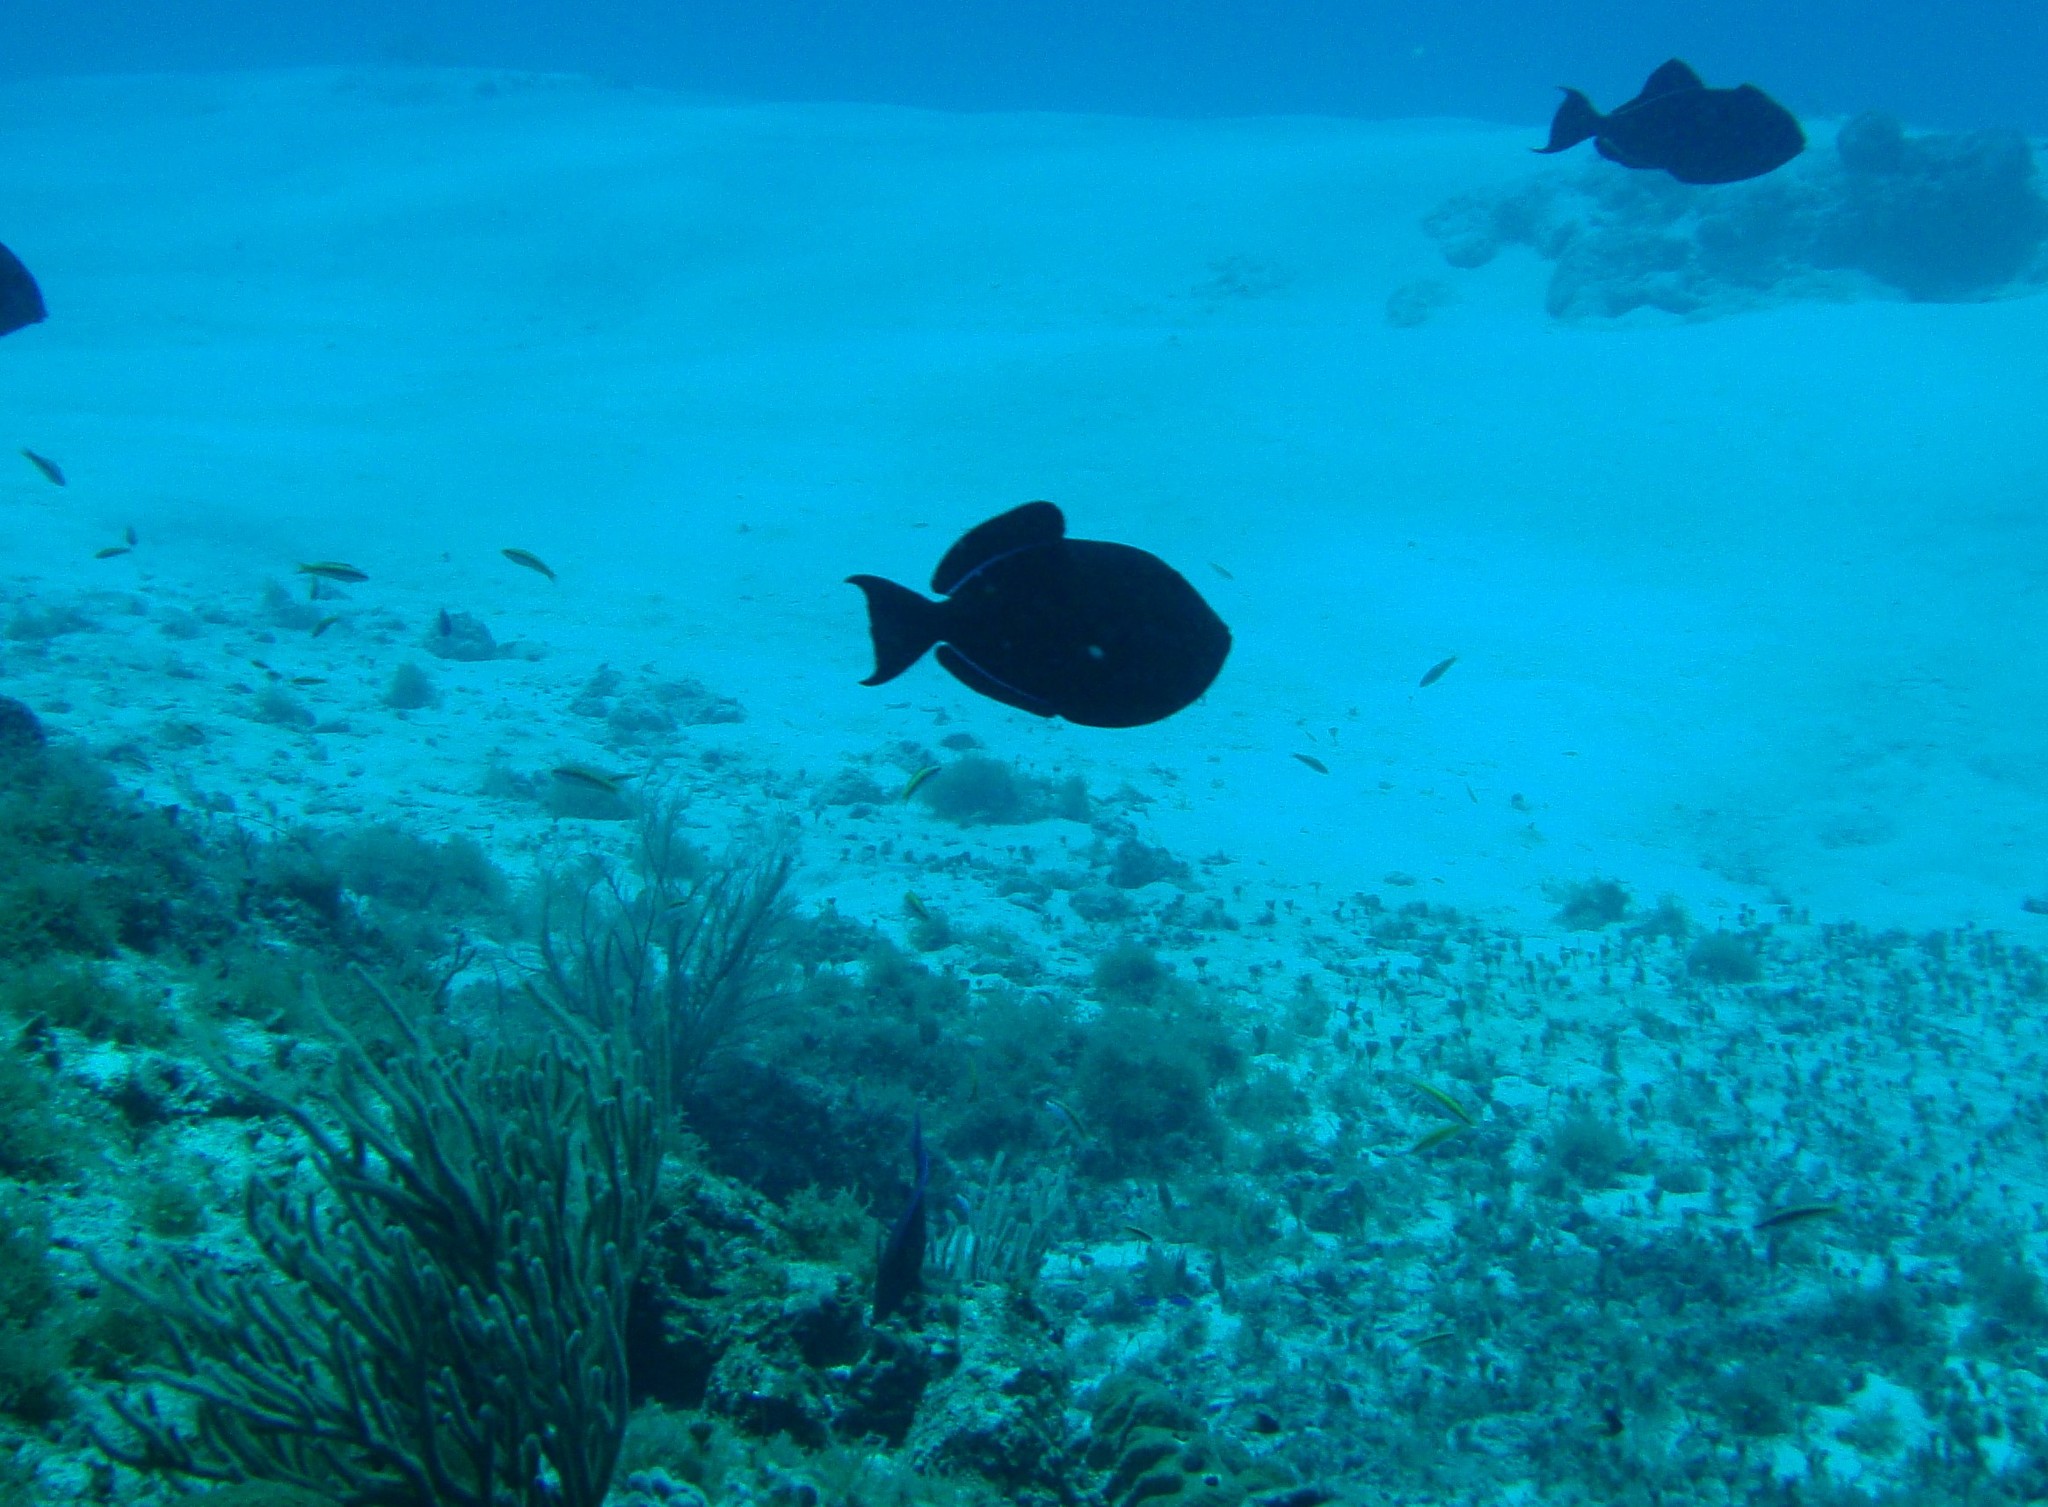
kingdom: Animalia
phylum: Chordata
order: Tetraodontiformes
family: Balistidae
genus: Melichthys
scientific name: Melichthys niger
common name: Black durgon
